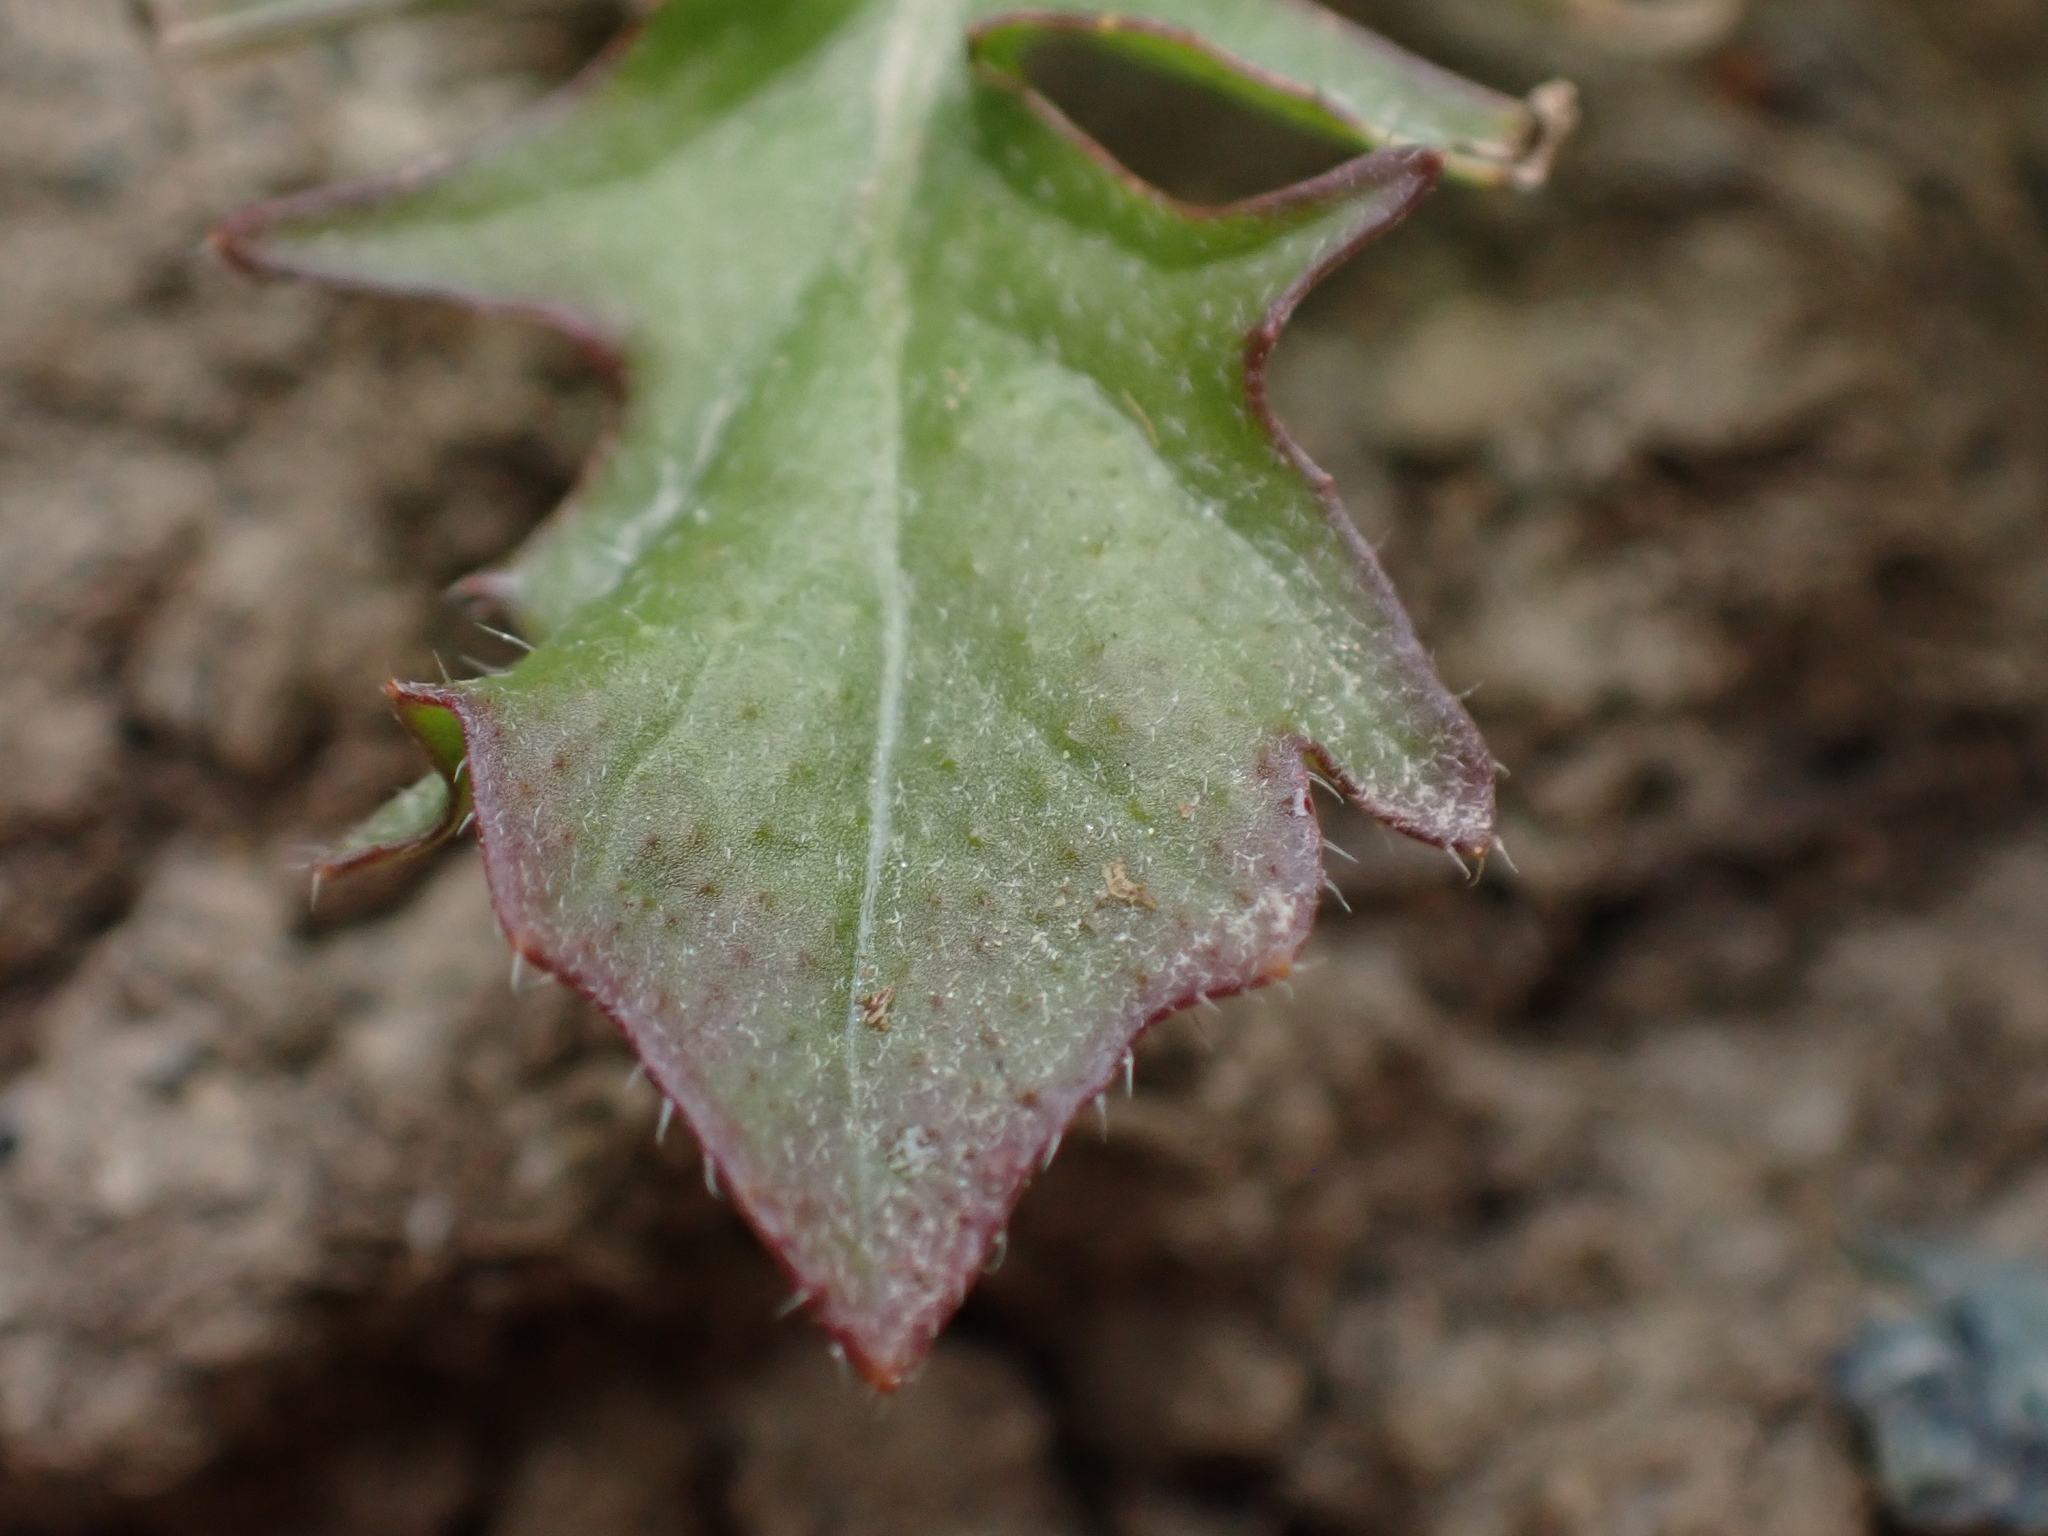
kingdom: Plantae
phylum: Tracheophyta
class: Magnoliopsida
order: Brassicales
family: Brassicaceae
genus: Capsella
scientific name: Capsella bursa-pastoris
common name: Shepherd's purse
